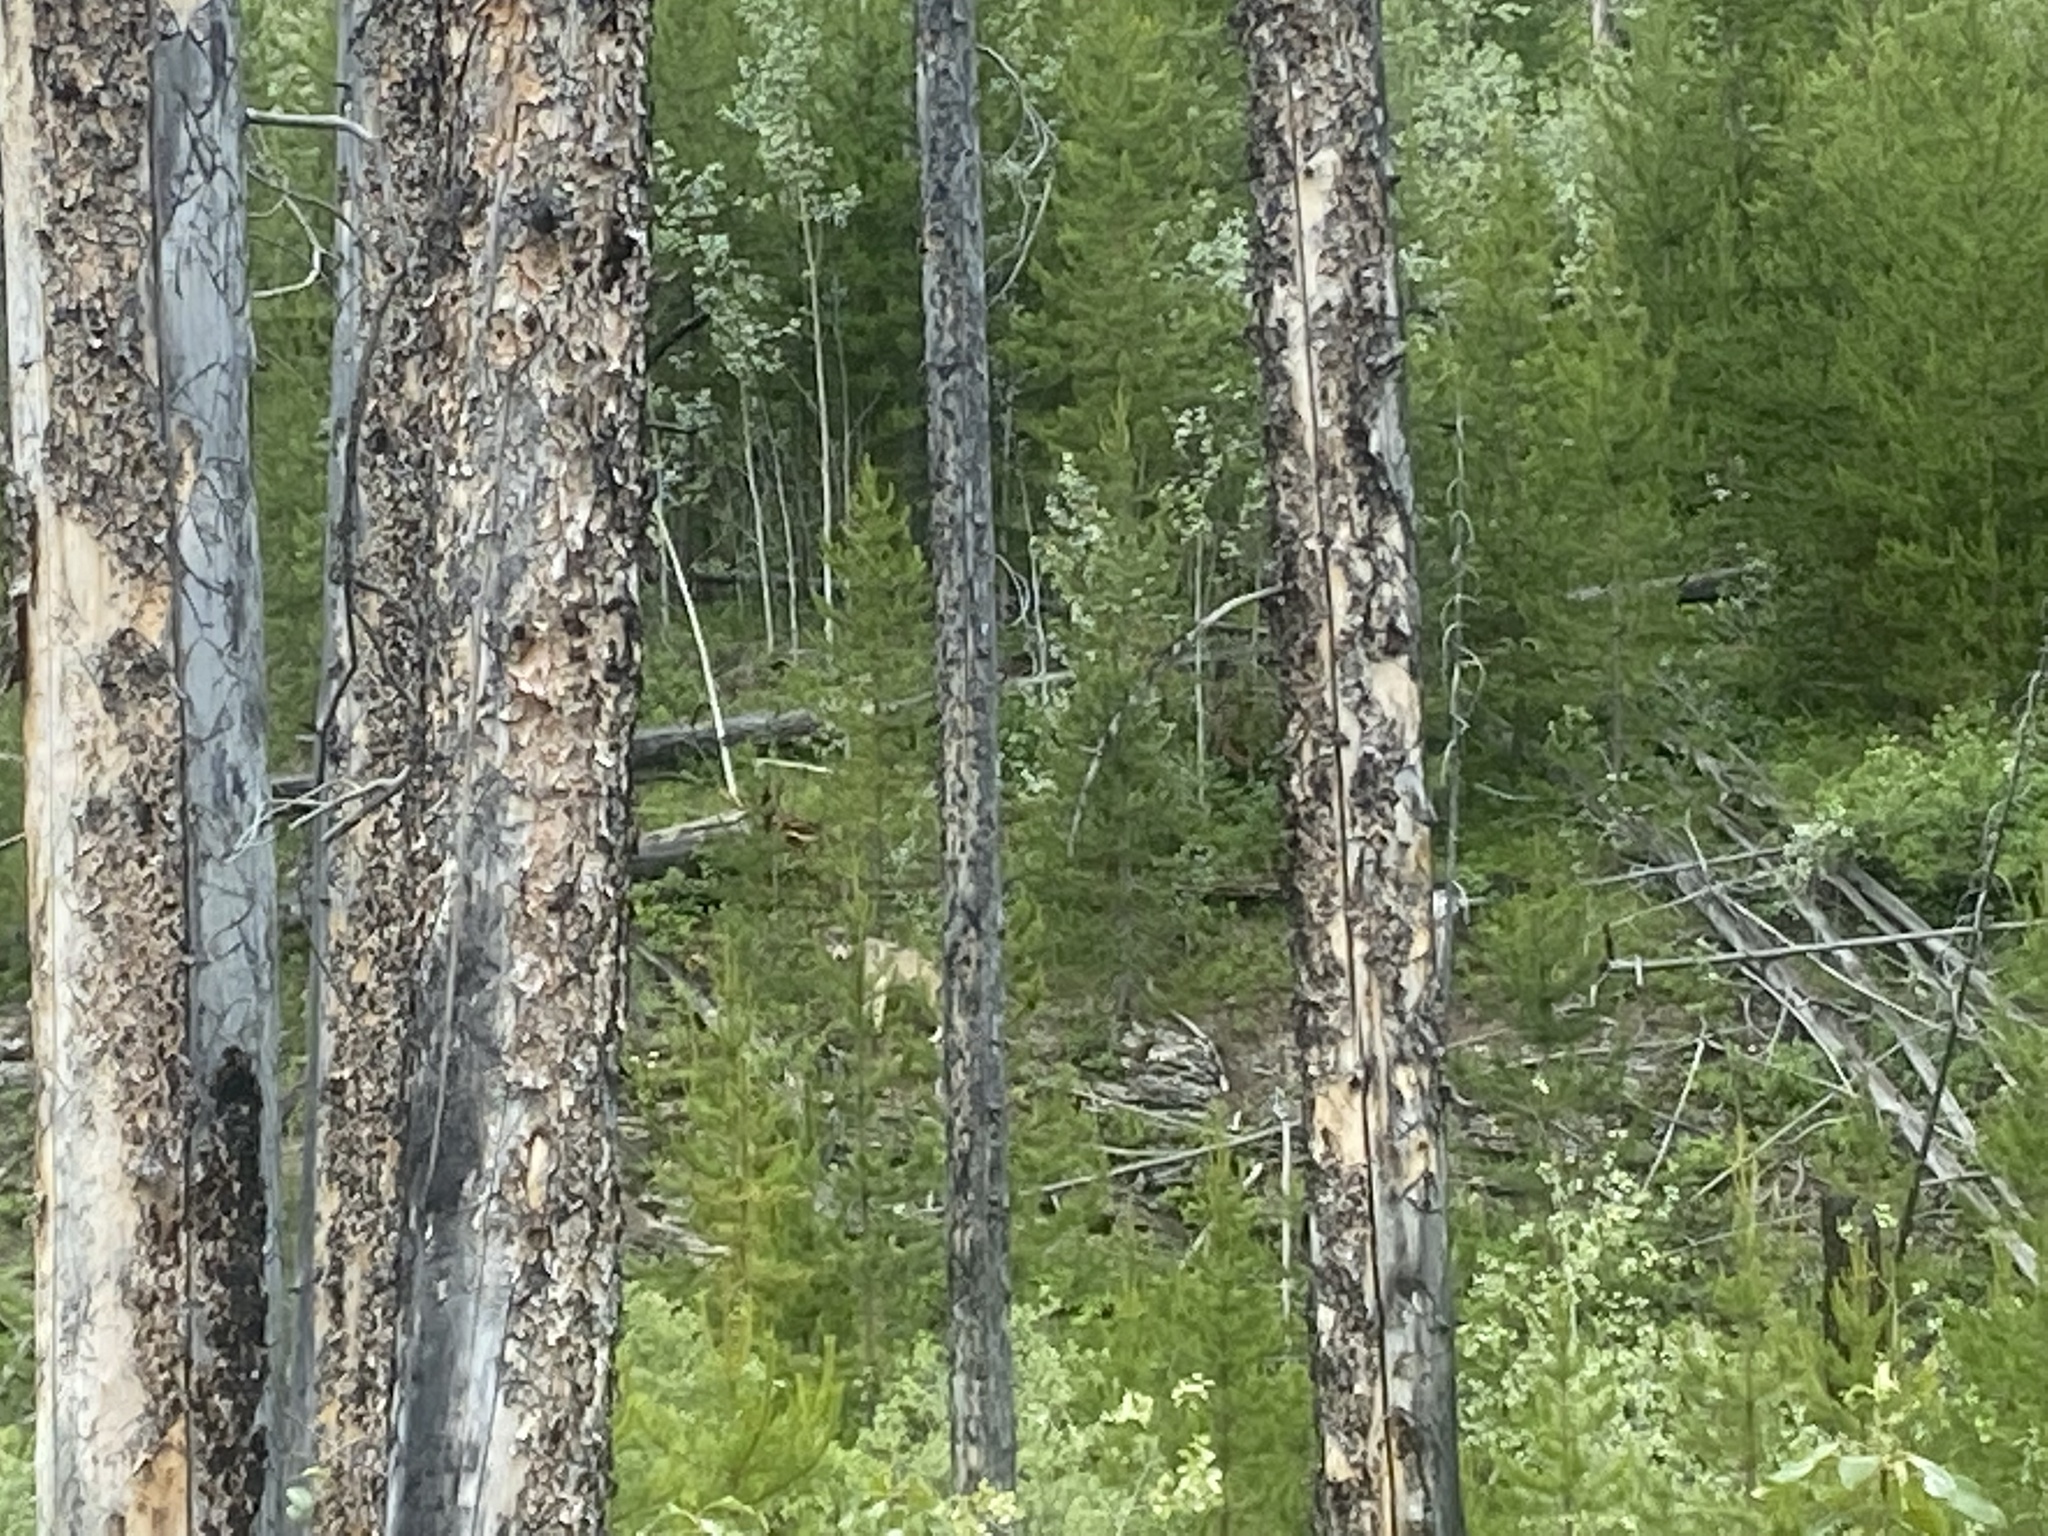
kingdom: Animalia
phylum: Chordata
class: Mammalia
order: Carnivora
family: Canidae
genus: Canis
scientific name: Canis lupus
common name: Gray wolf
